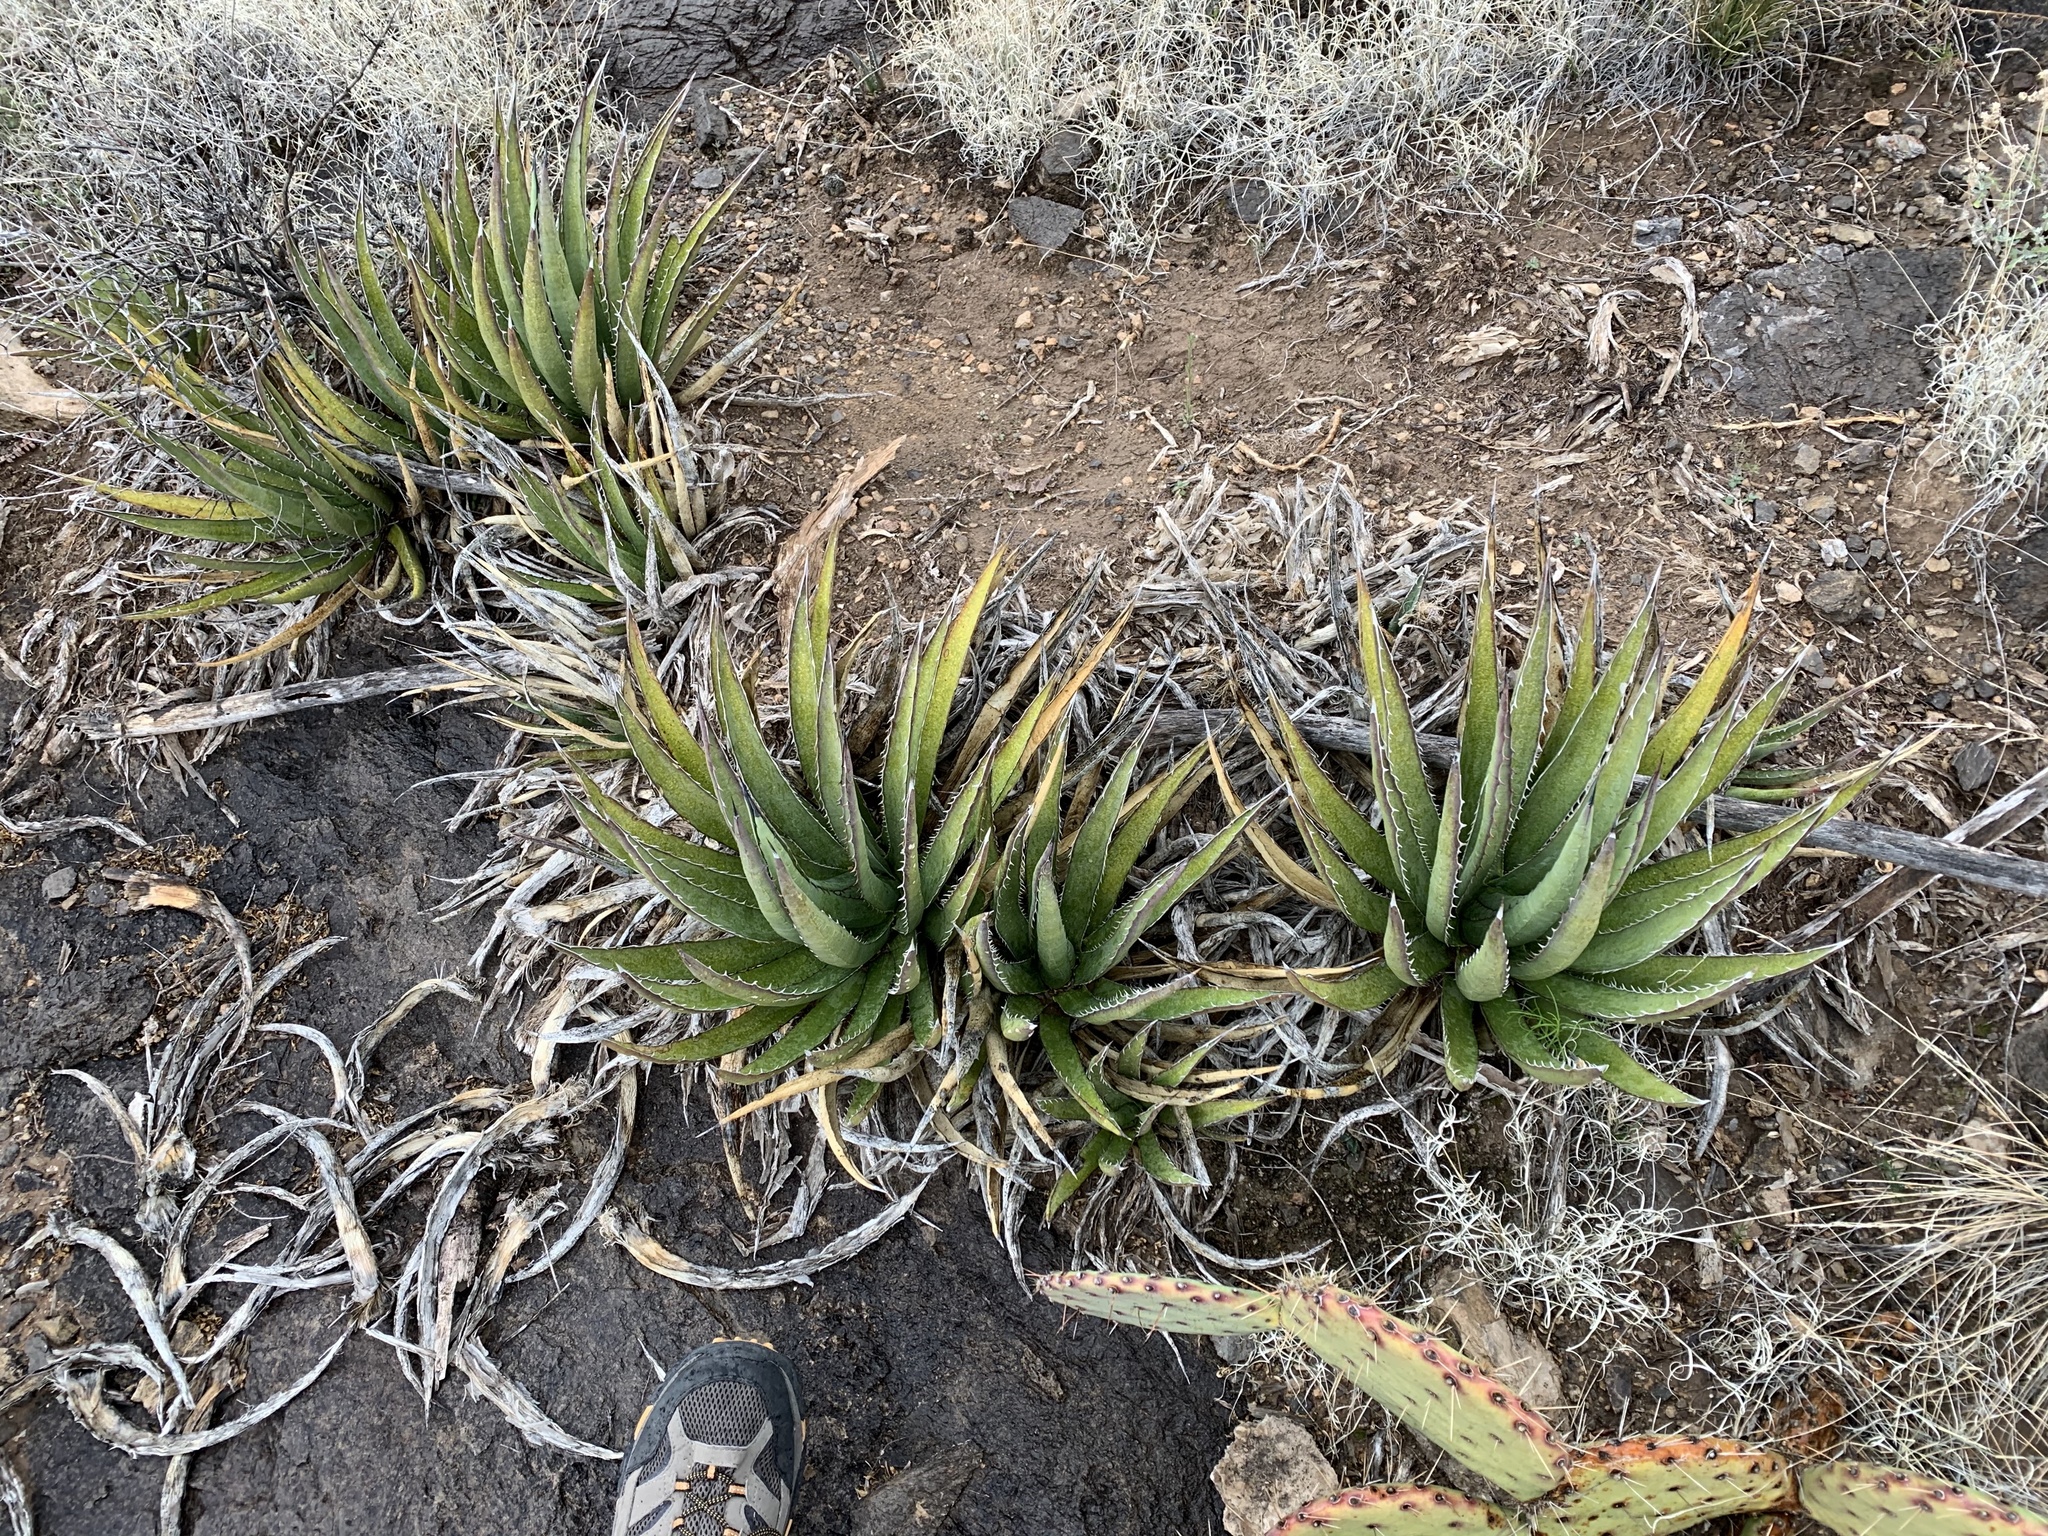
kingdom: Plantae
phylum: Tracheophyta
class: Liliopsida
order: Asparagales
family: Asparagaceae
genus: Agave
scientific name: Agave lechuguilla
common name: Lecheguilla agave
